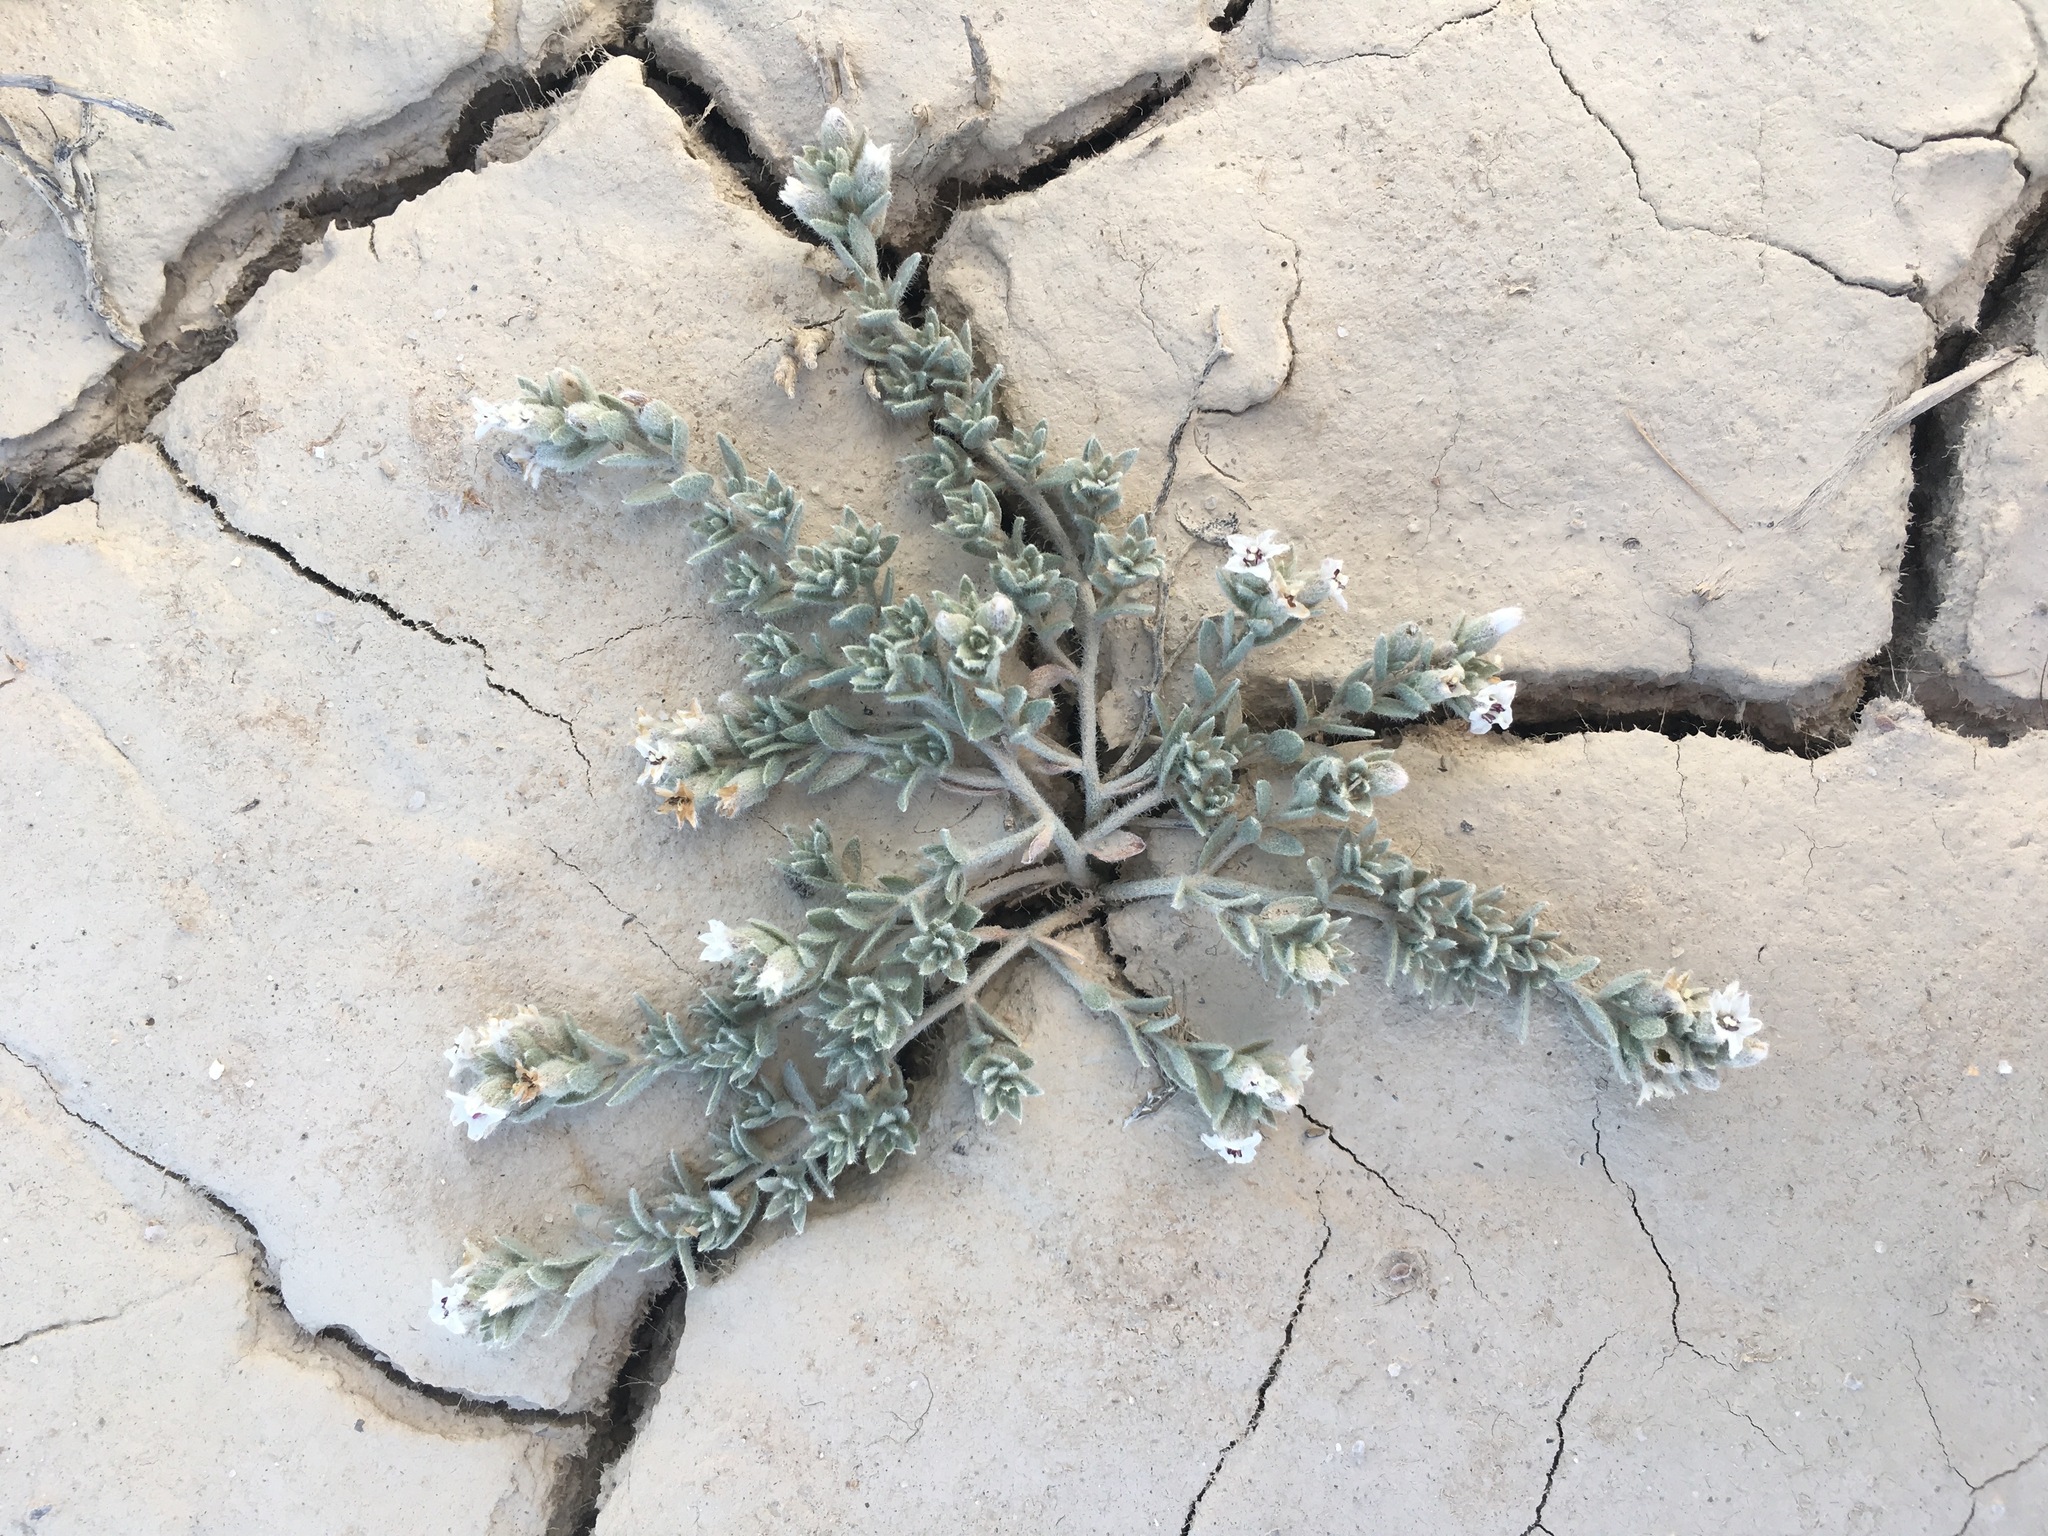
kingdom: Plantae
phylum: Tracheophyta
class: Magnoliopsida
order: Solanales
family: Convolvulaceae
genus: Cressa
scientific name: Cressa truxillensis
